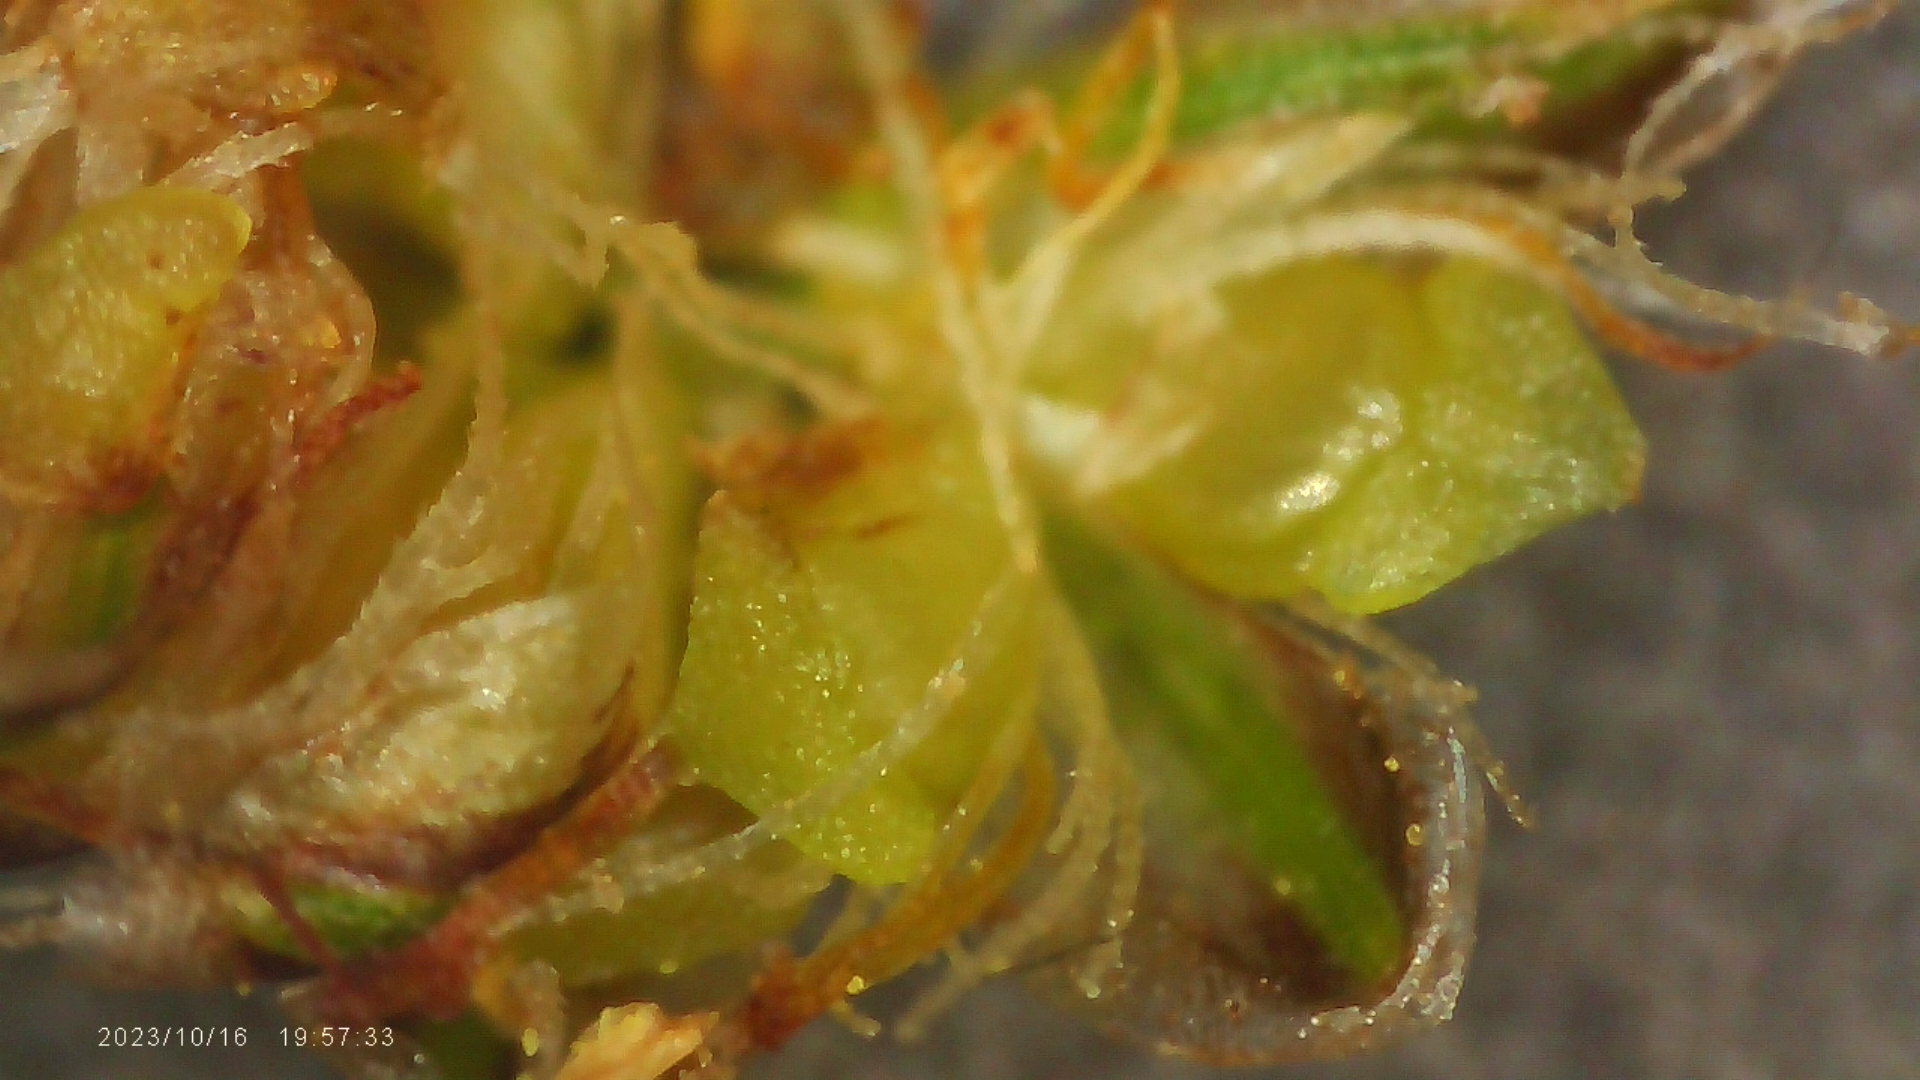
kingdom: Plantae
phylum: Tracheophyta
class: Liliopsida
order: Poales
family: Cyperaceae
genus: Eleocharis
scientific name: Eleocharis obtusa
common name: Blunt spikerush
